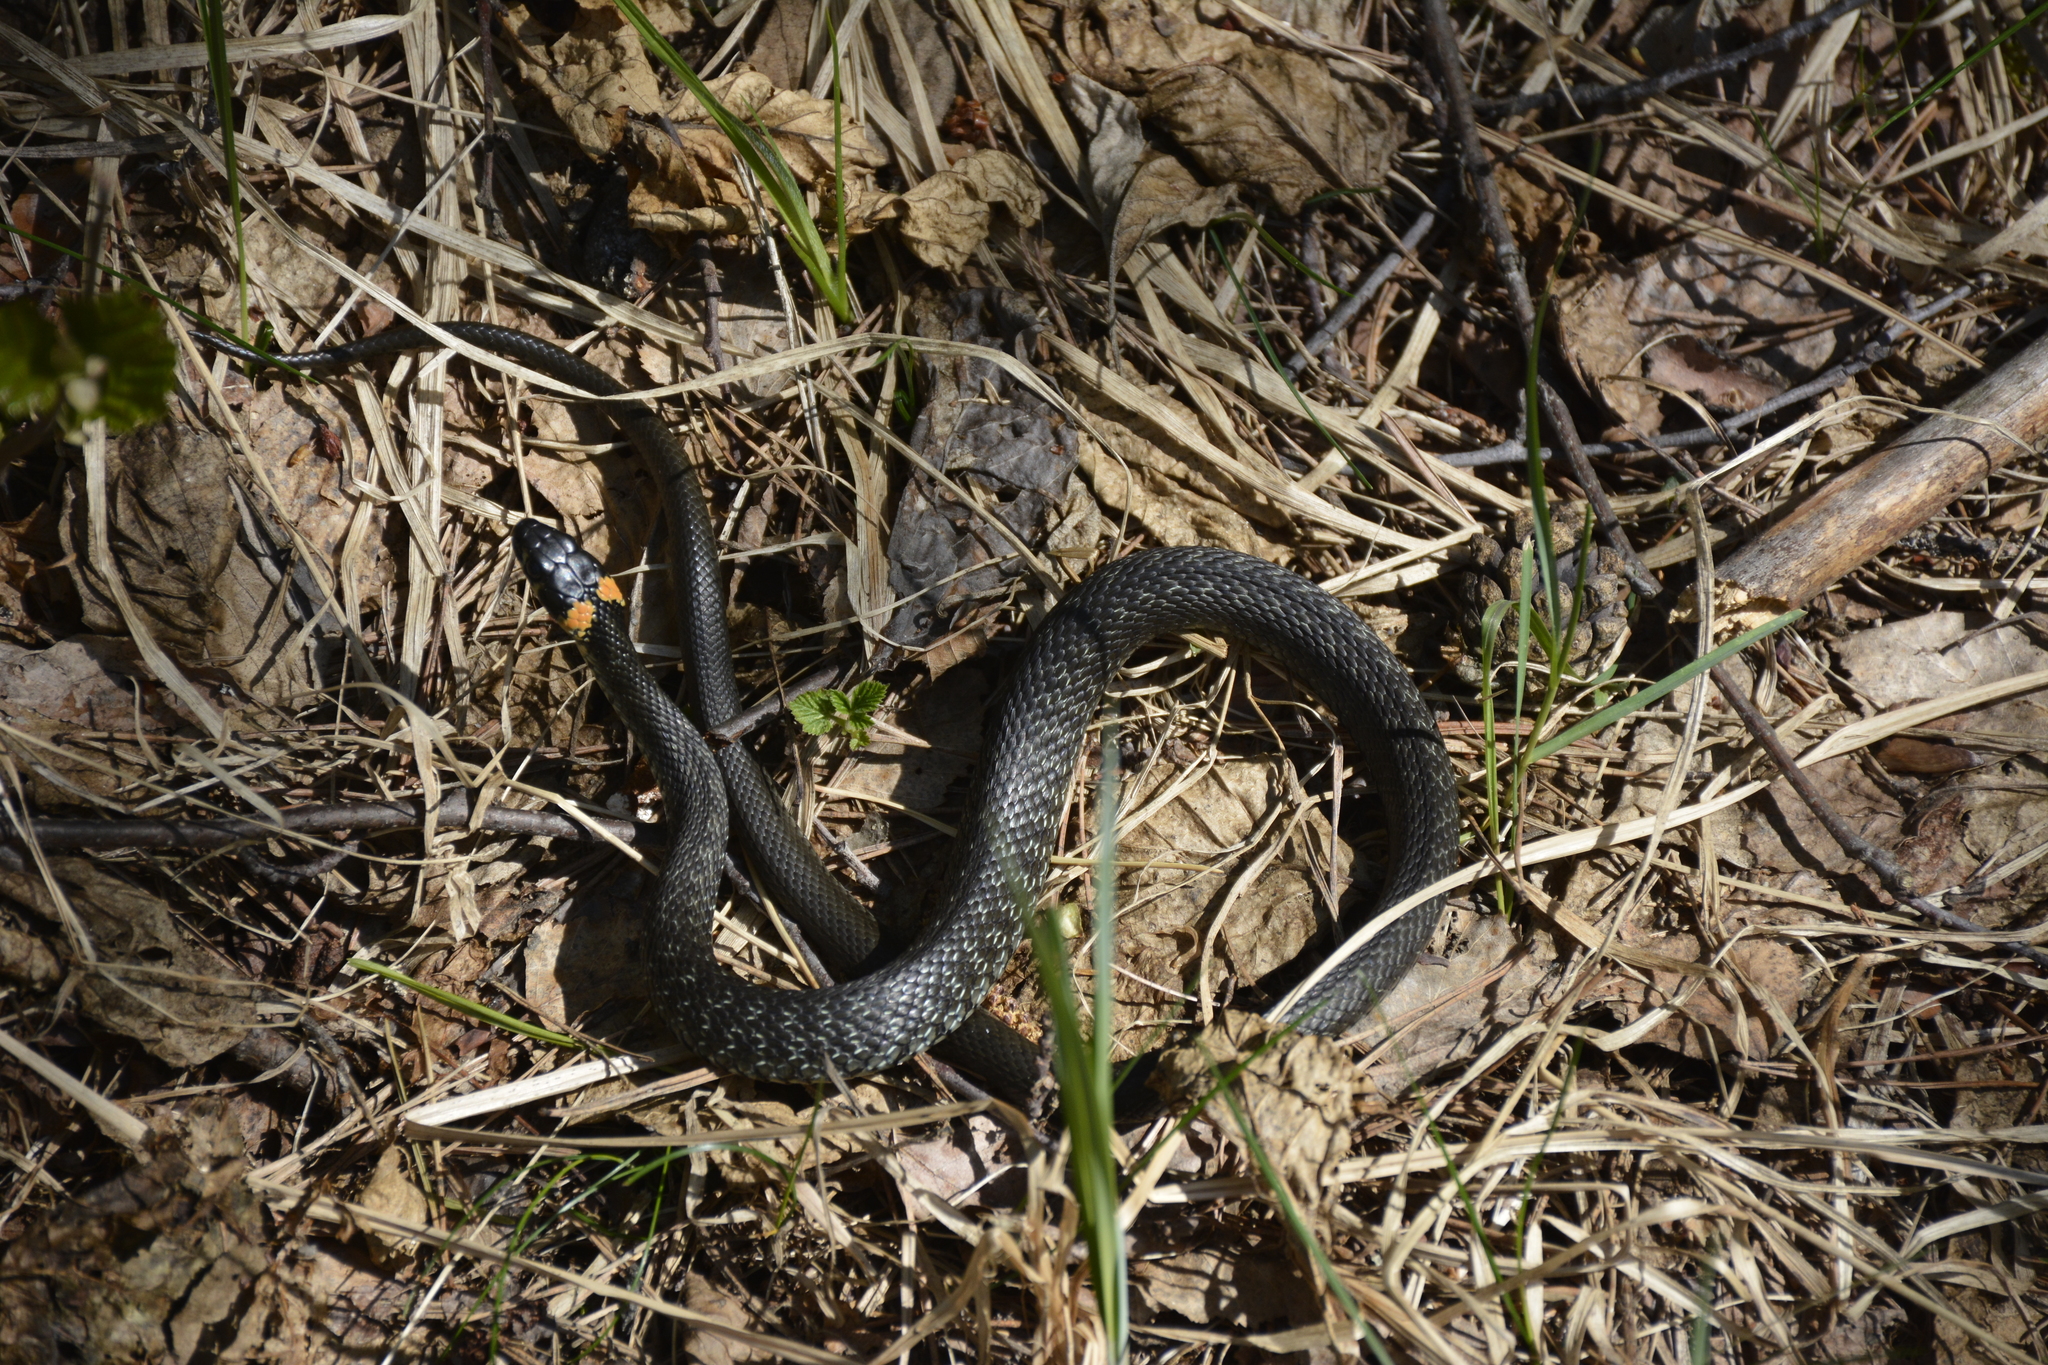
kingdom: Animalia
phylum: Chordata
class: Squamata
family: Colubridae
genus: Natrix
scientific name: Natrix natrix
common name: Grass snake
